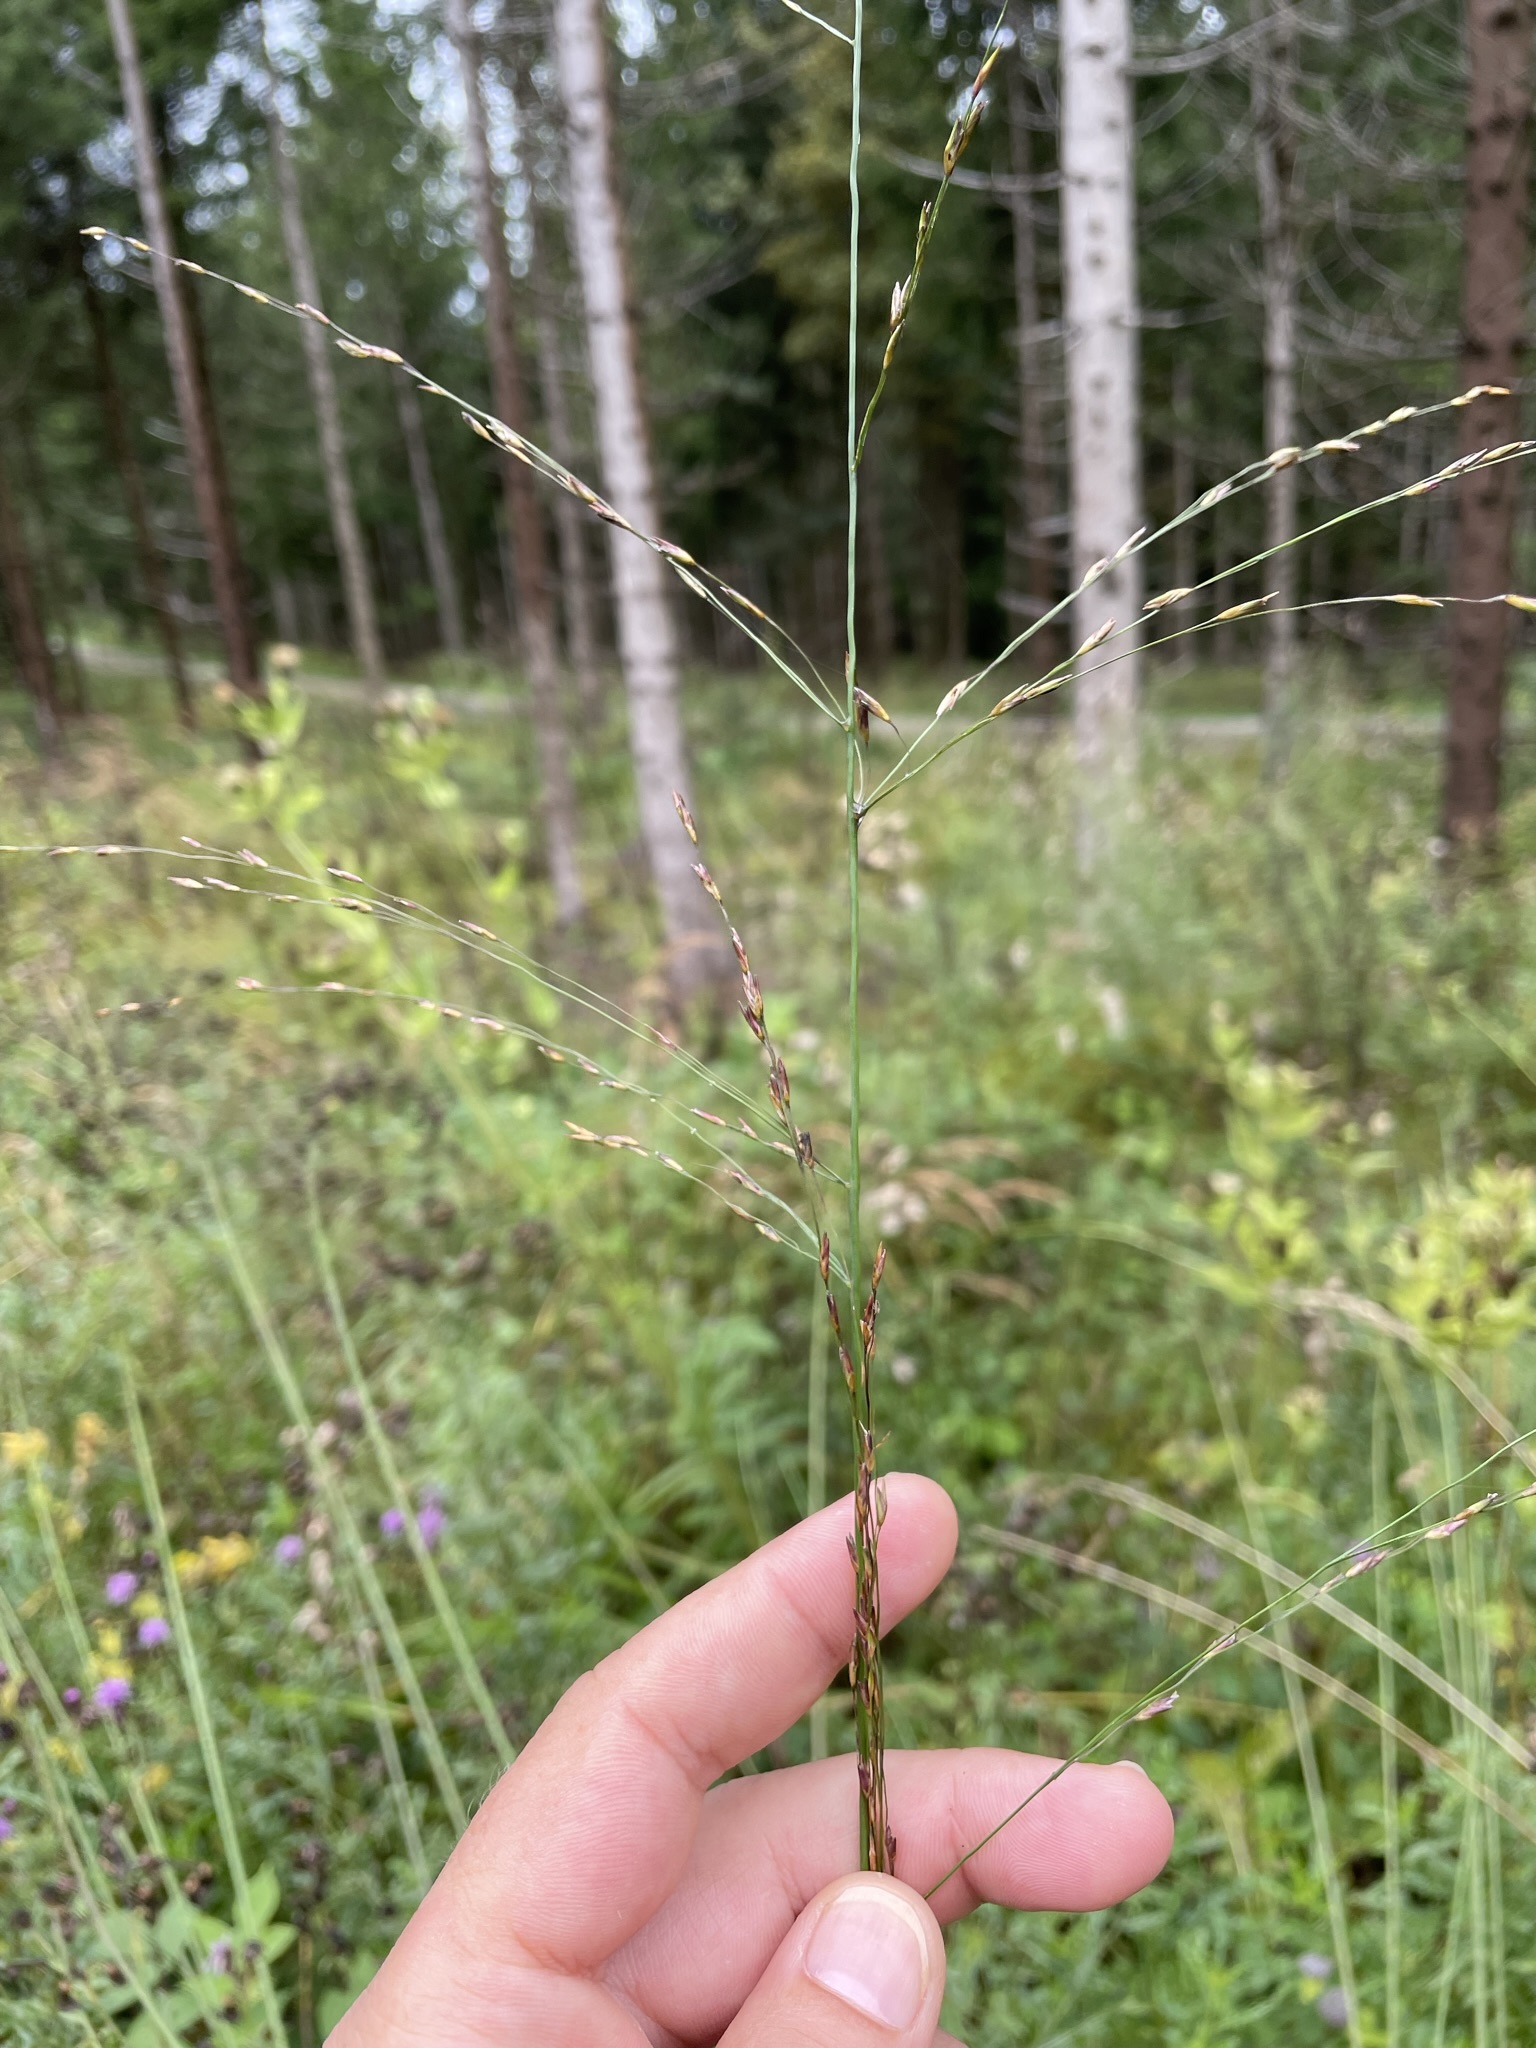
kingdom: Plantae
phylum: Tracheophyta
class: Liliopsida
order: Poales
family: Poaceae
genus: Molinia
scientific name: Molinia caerulea
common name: Purple moor-grass
